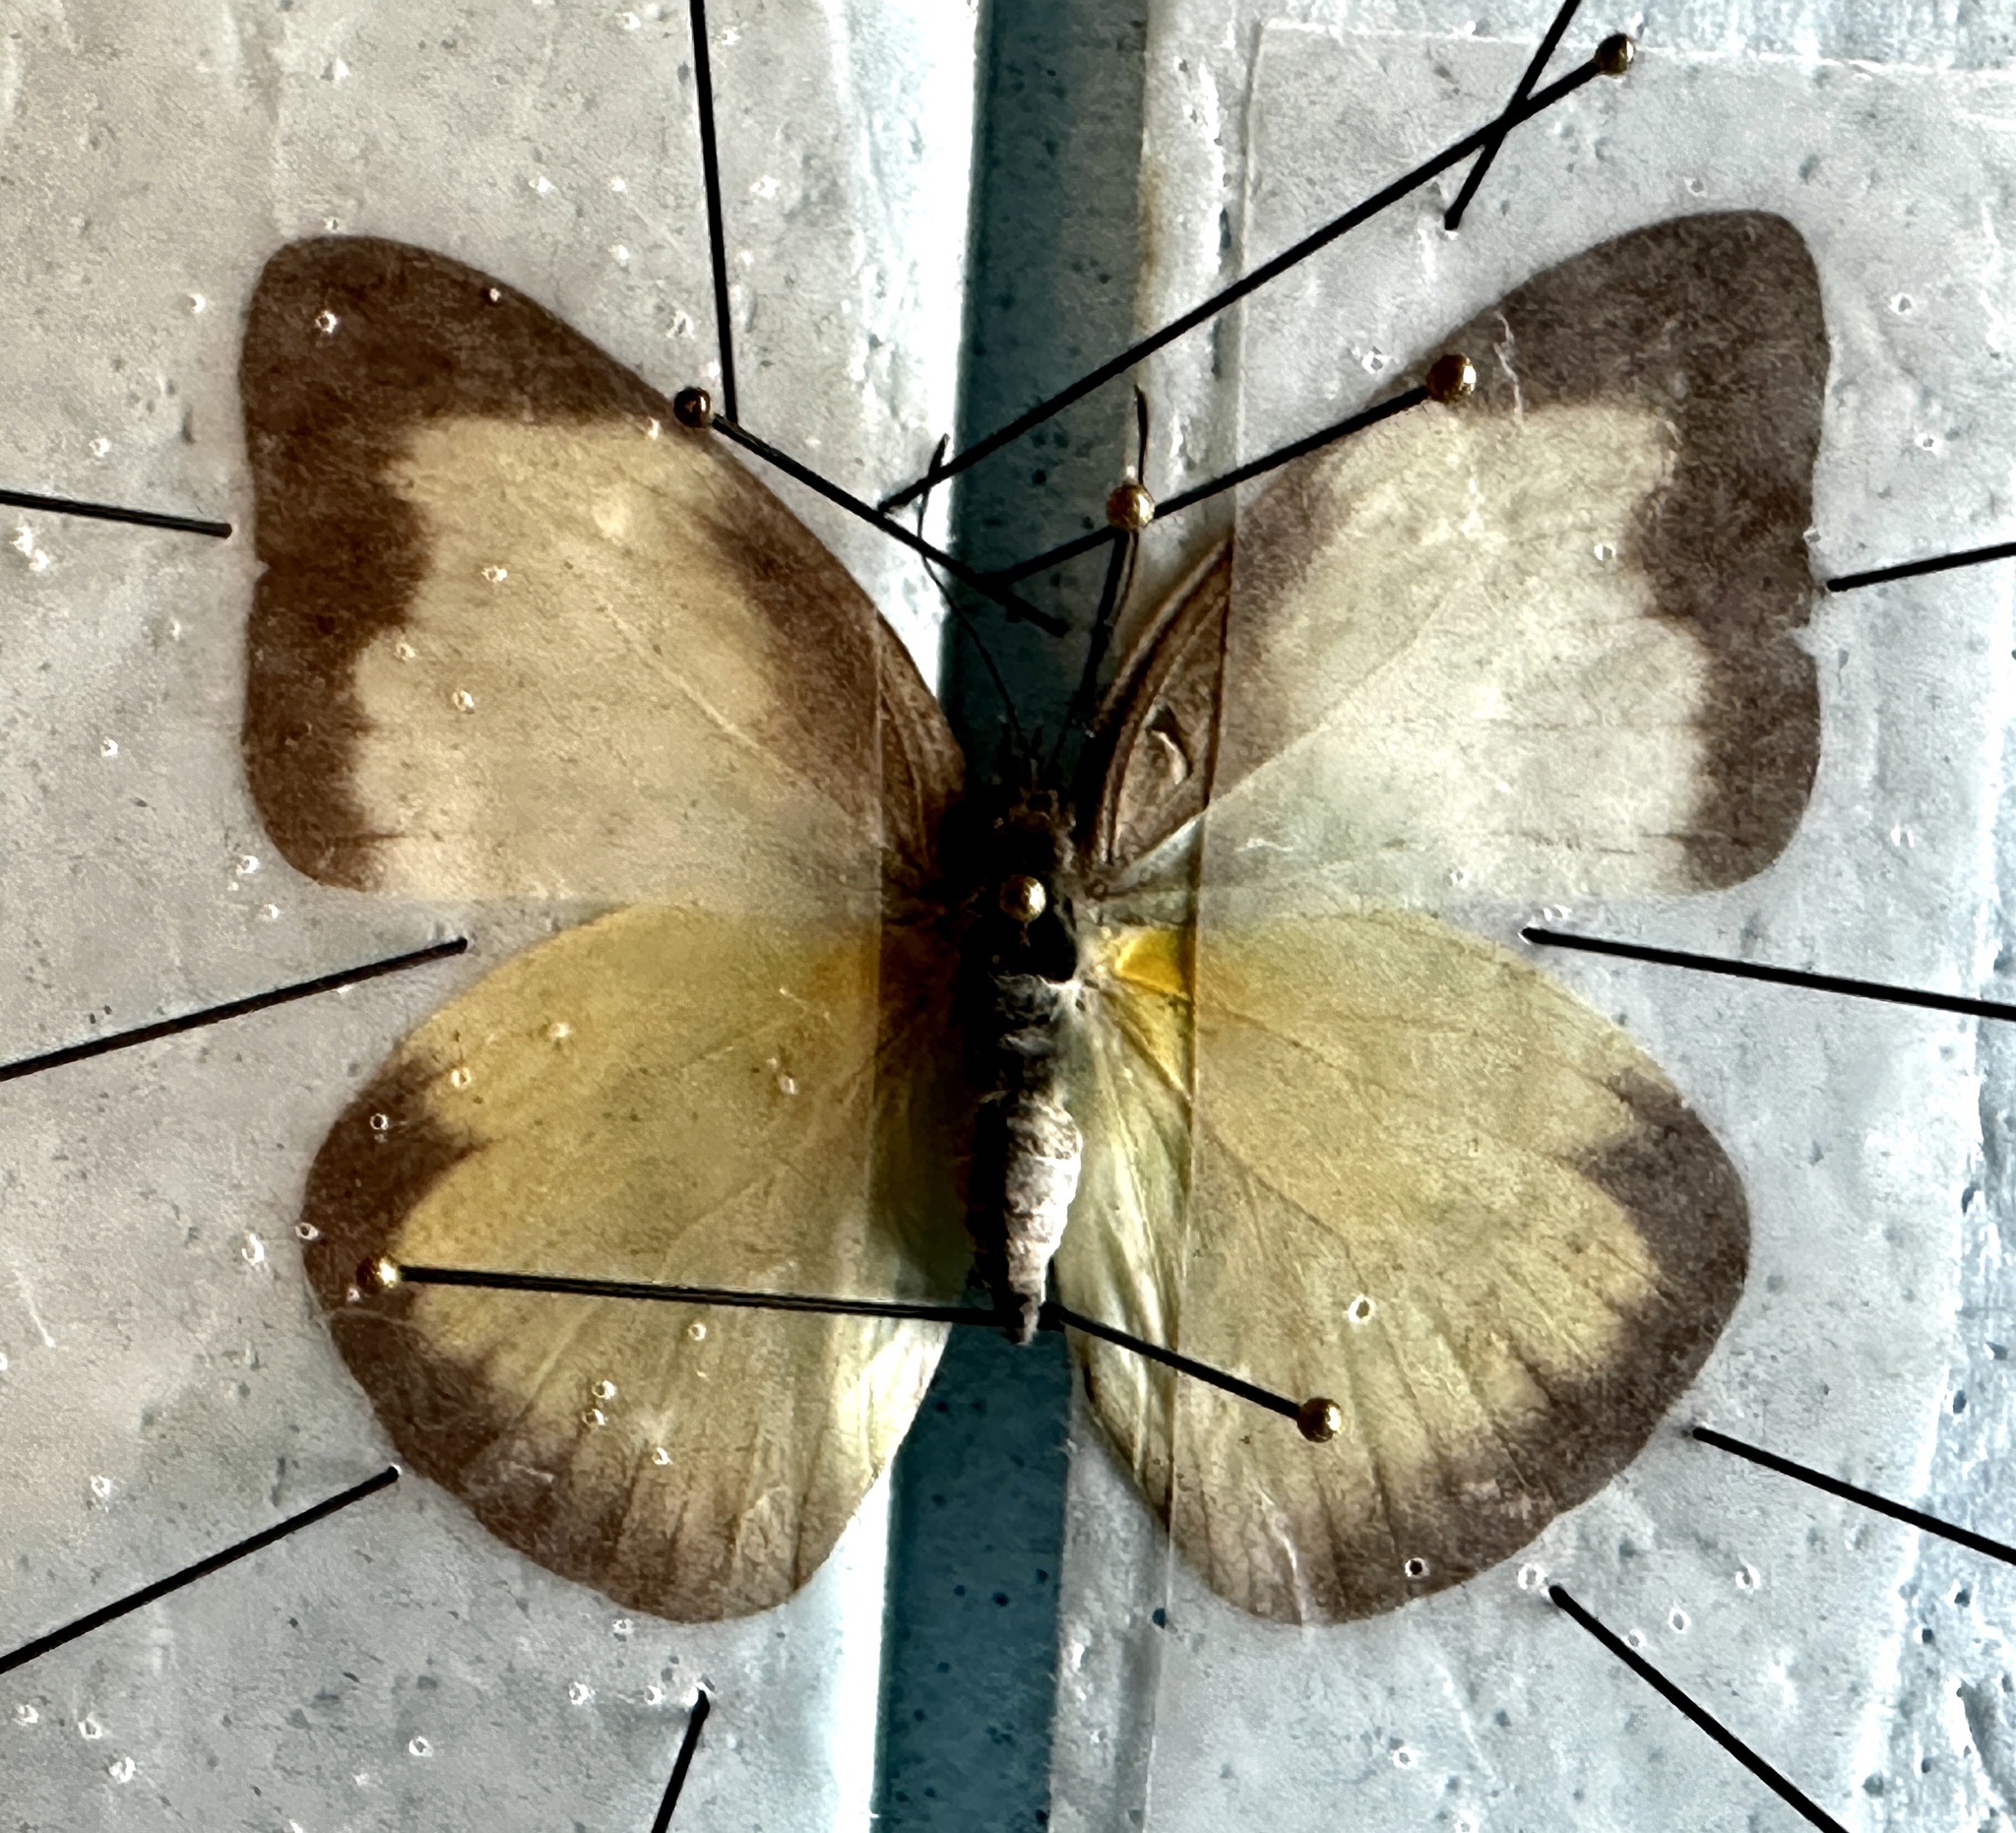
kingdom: Animalia
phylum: Arthropoda
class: Insecta
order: Lepidoptera
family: Pieridae
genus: Glutophrissa
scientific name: Glutophrissa drusilla
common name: Florida white
